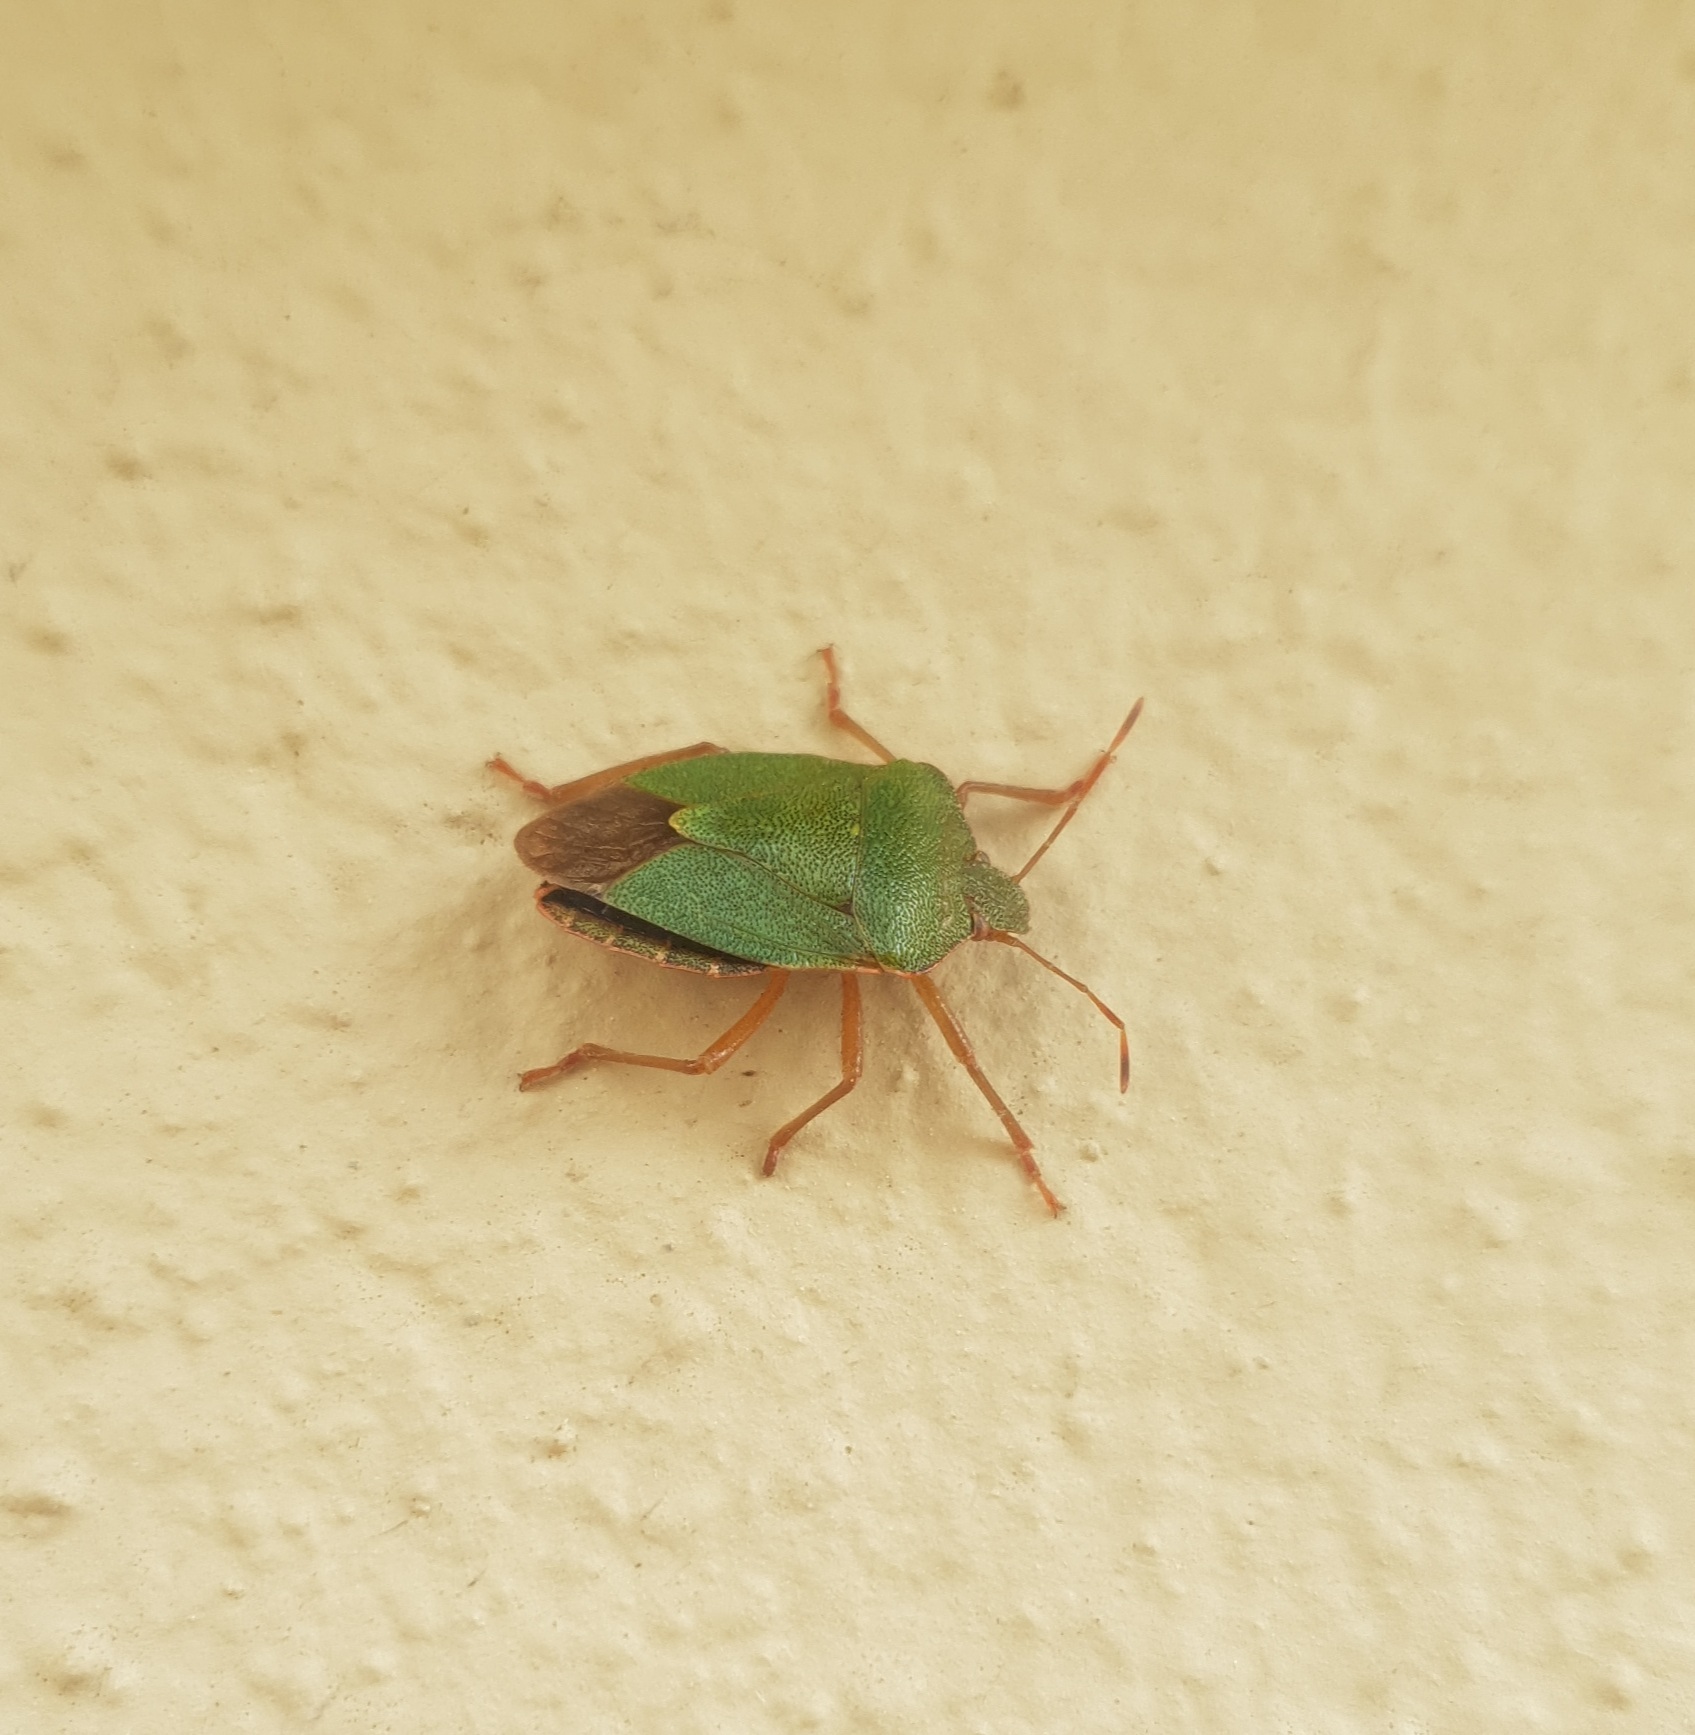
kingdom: Animalia
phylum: Arthropoda
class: Insecta
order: Hemiptera
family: Pentatomidae
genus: Palomena
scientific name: Palomena prasina
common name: Green shieldbug
